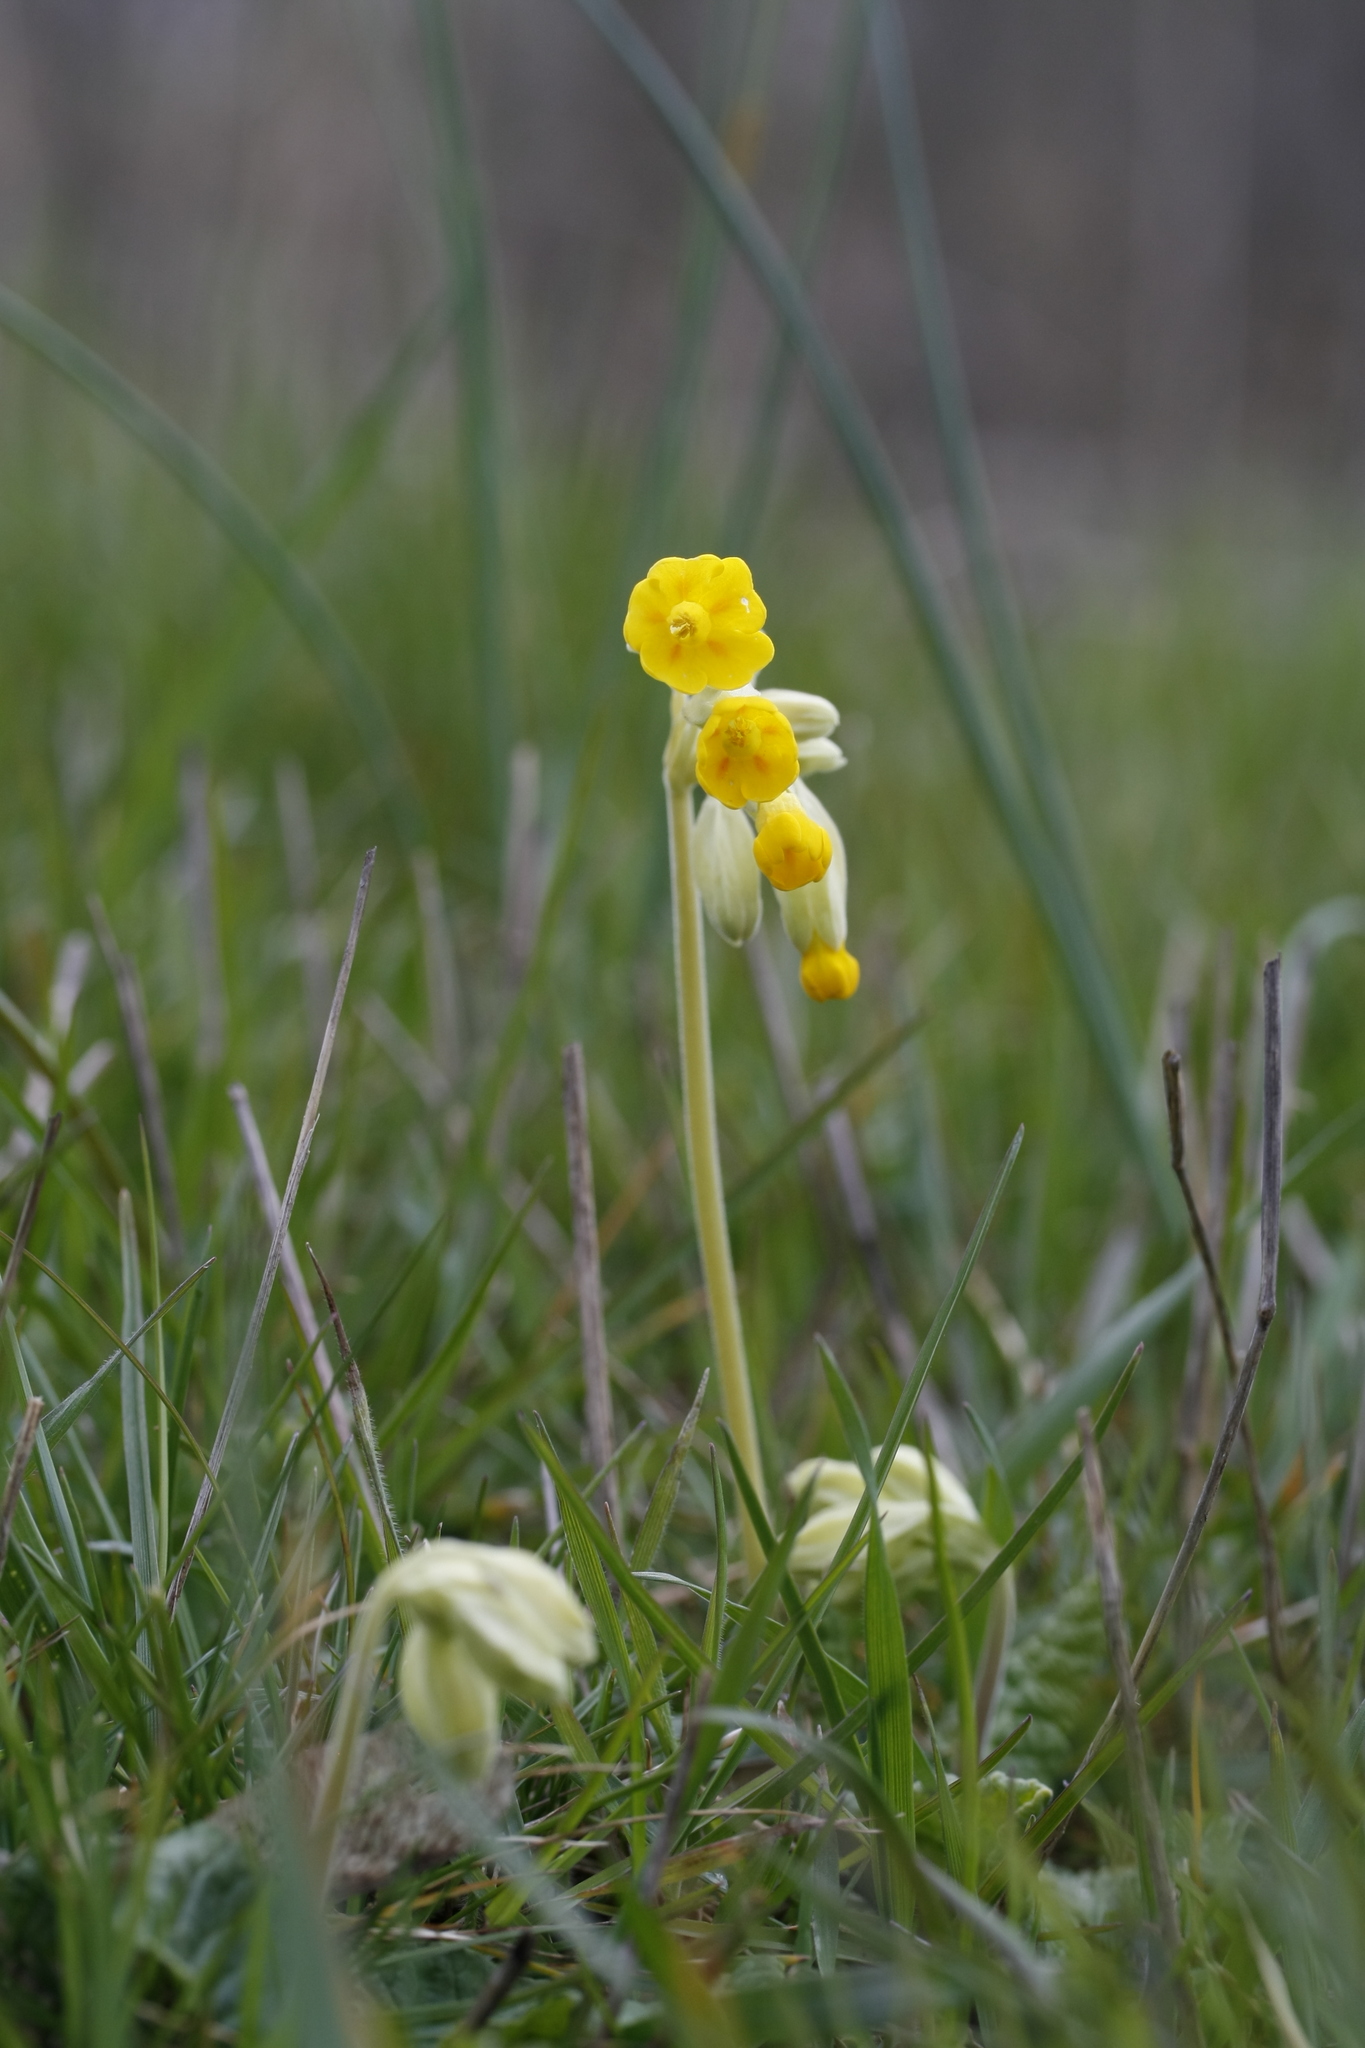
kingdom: Plantae
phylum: Tracheophyta
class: Magnoliopsida
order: Ericales
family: Primulaceae
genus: Primula
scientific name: Primula veris
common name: Cowslip
